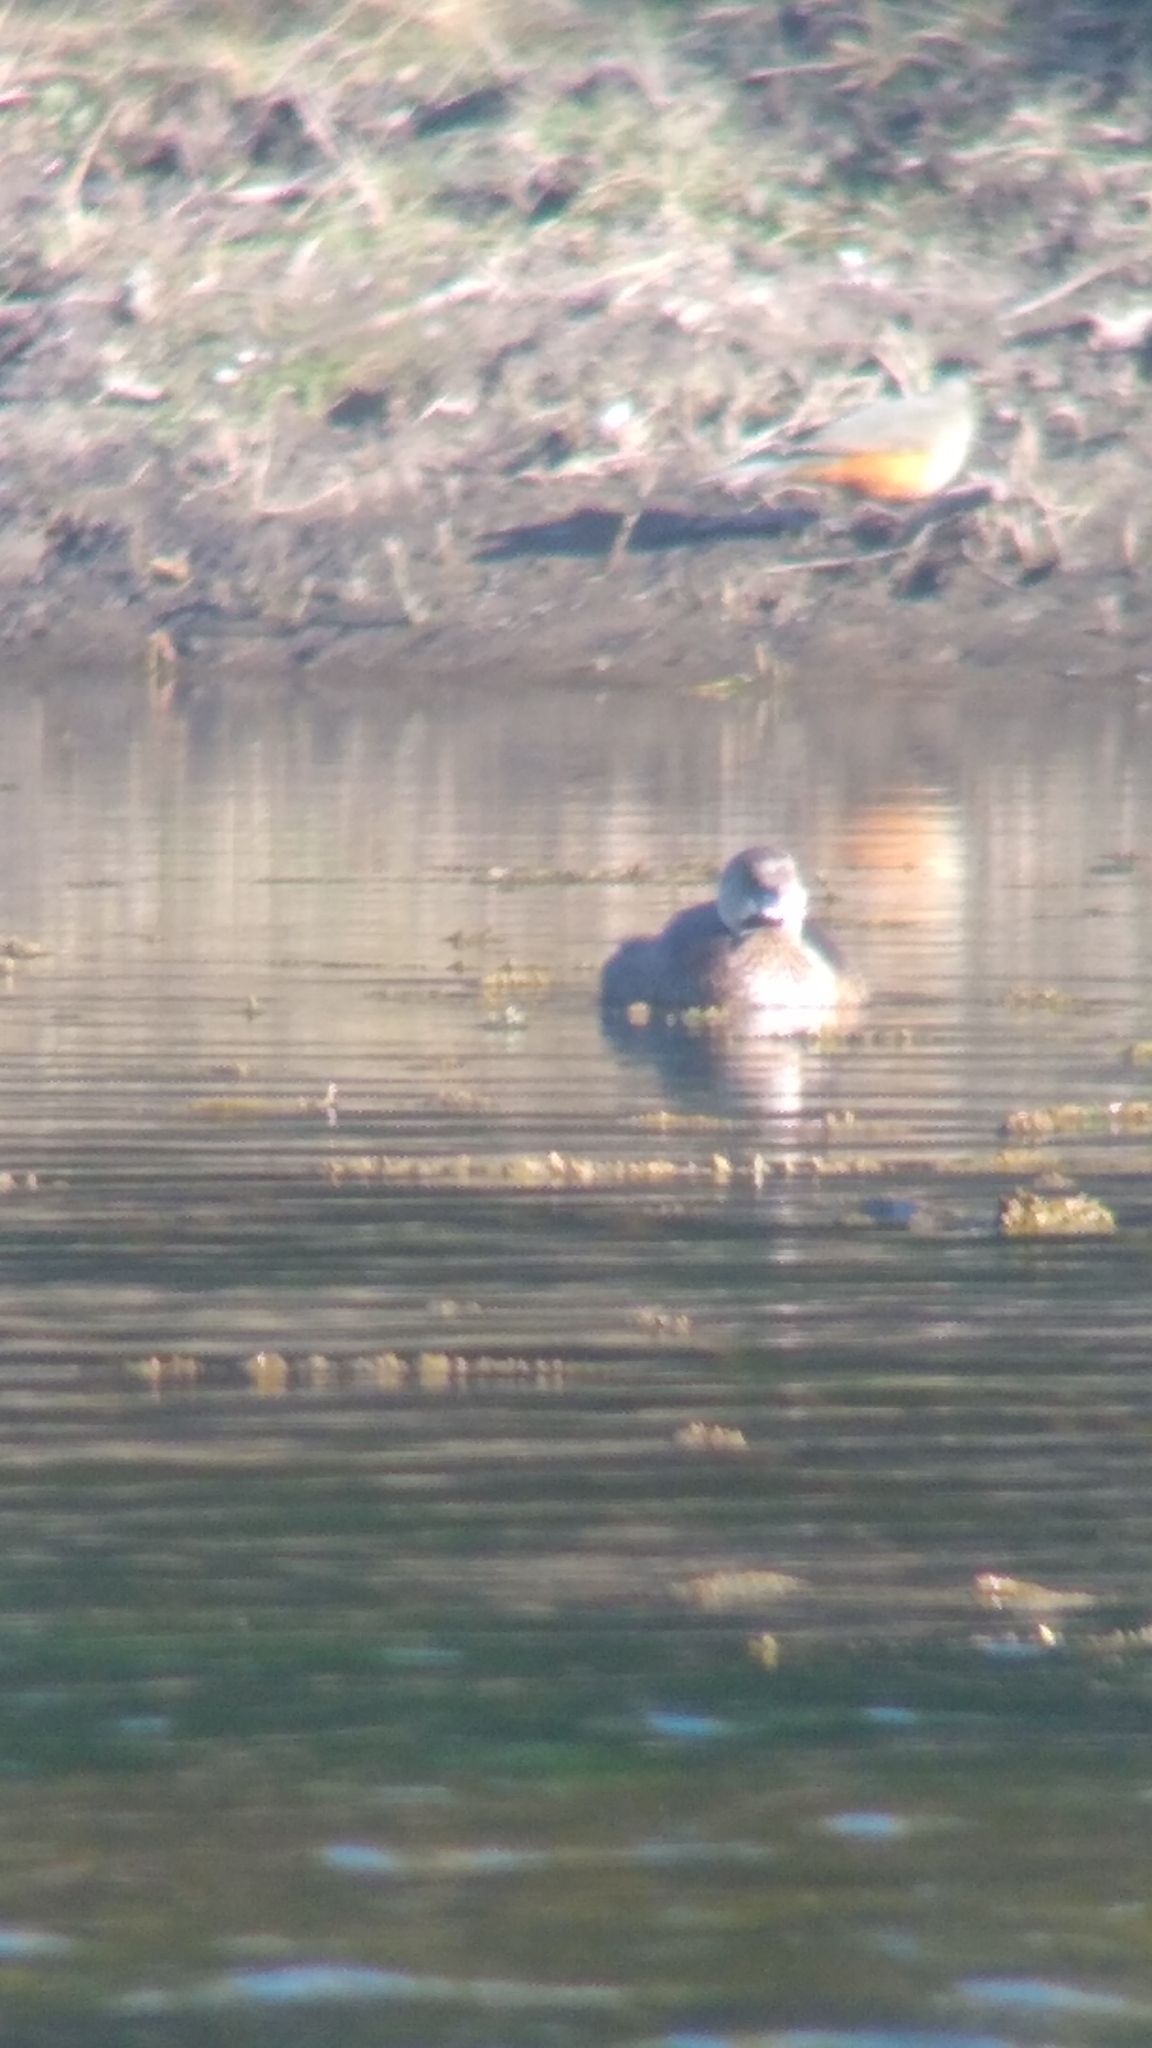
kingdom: Animalia
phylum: Chordata
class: Aves
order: Podicipediformes
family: Podicipedidae
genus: Podilymbus
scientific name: Podilymbus podiceps
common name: Pied-billed grebe
